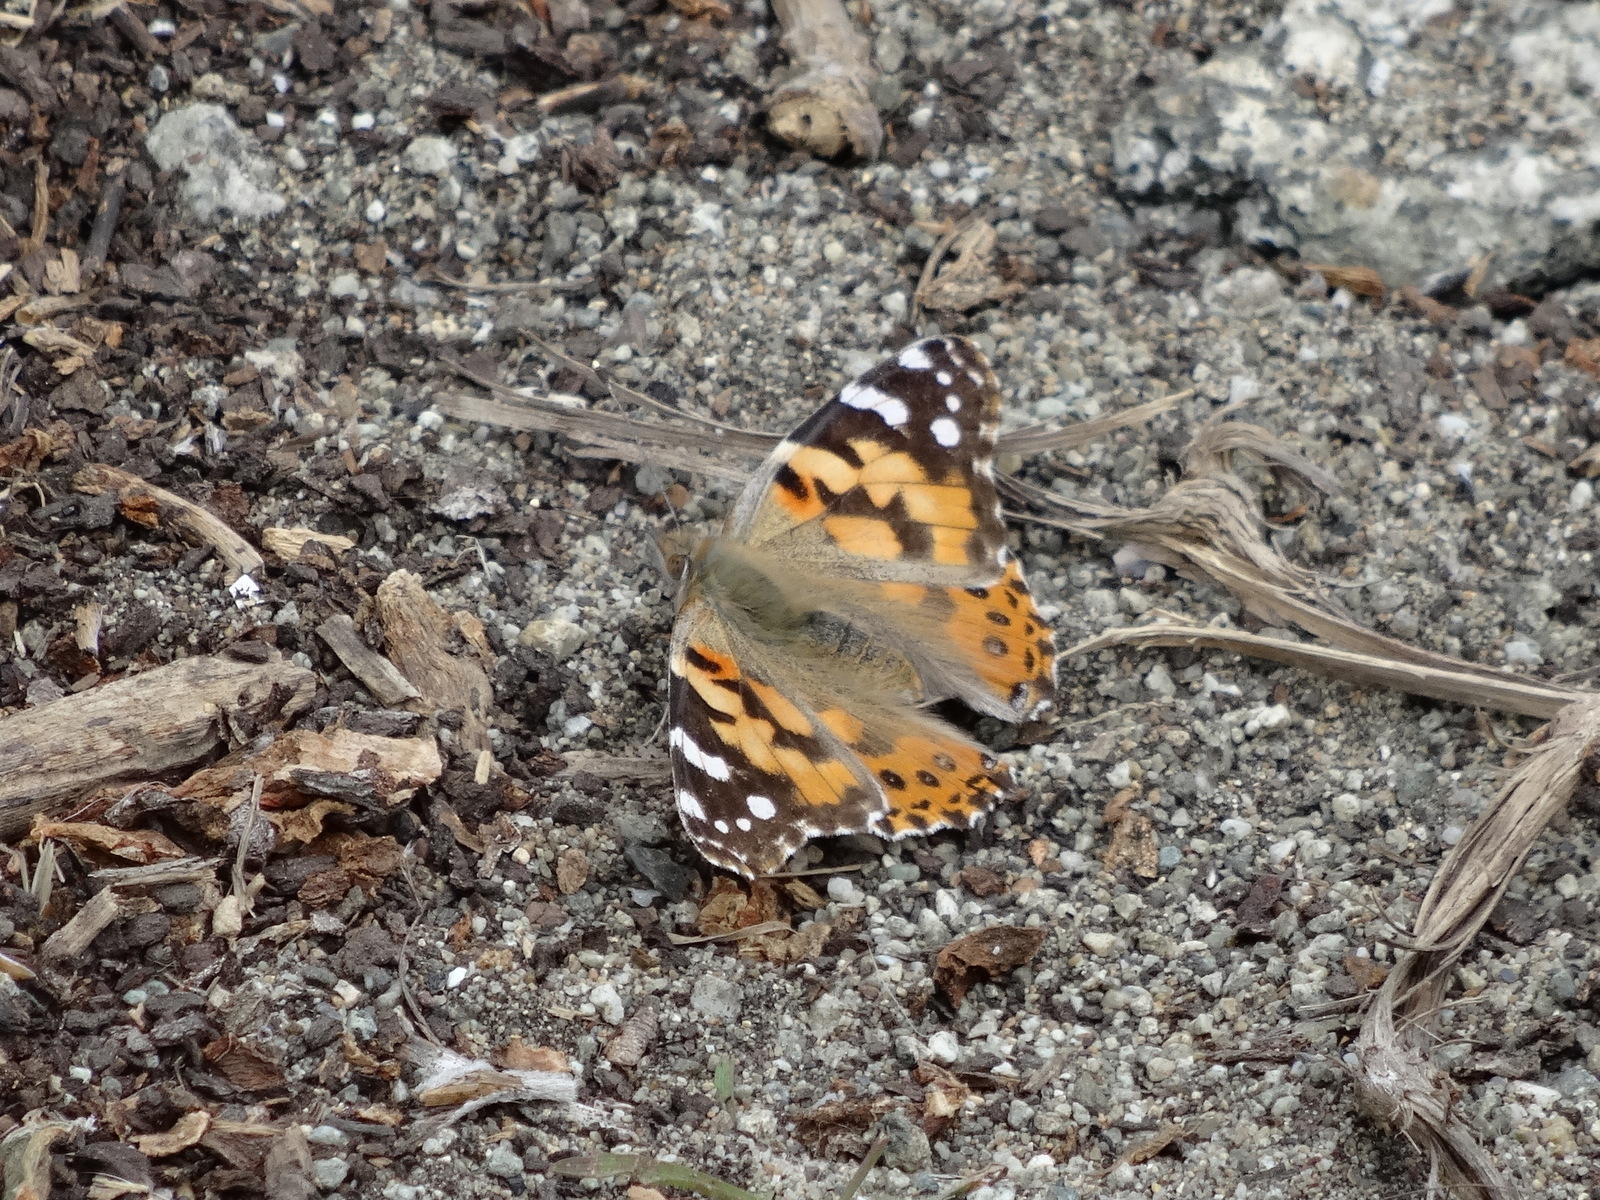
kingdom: Animalia
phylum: Arthropoda
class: Insecta
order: Lepidoptera
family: Nymphalidae
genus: Vanessa
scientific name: Vanessa cardui
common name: Painted lady
